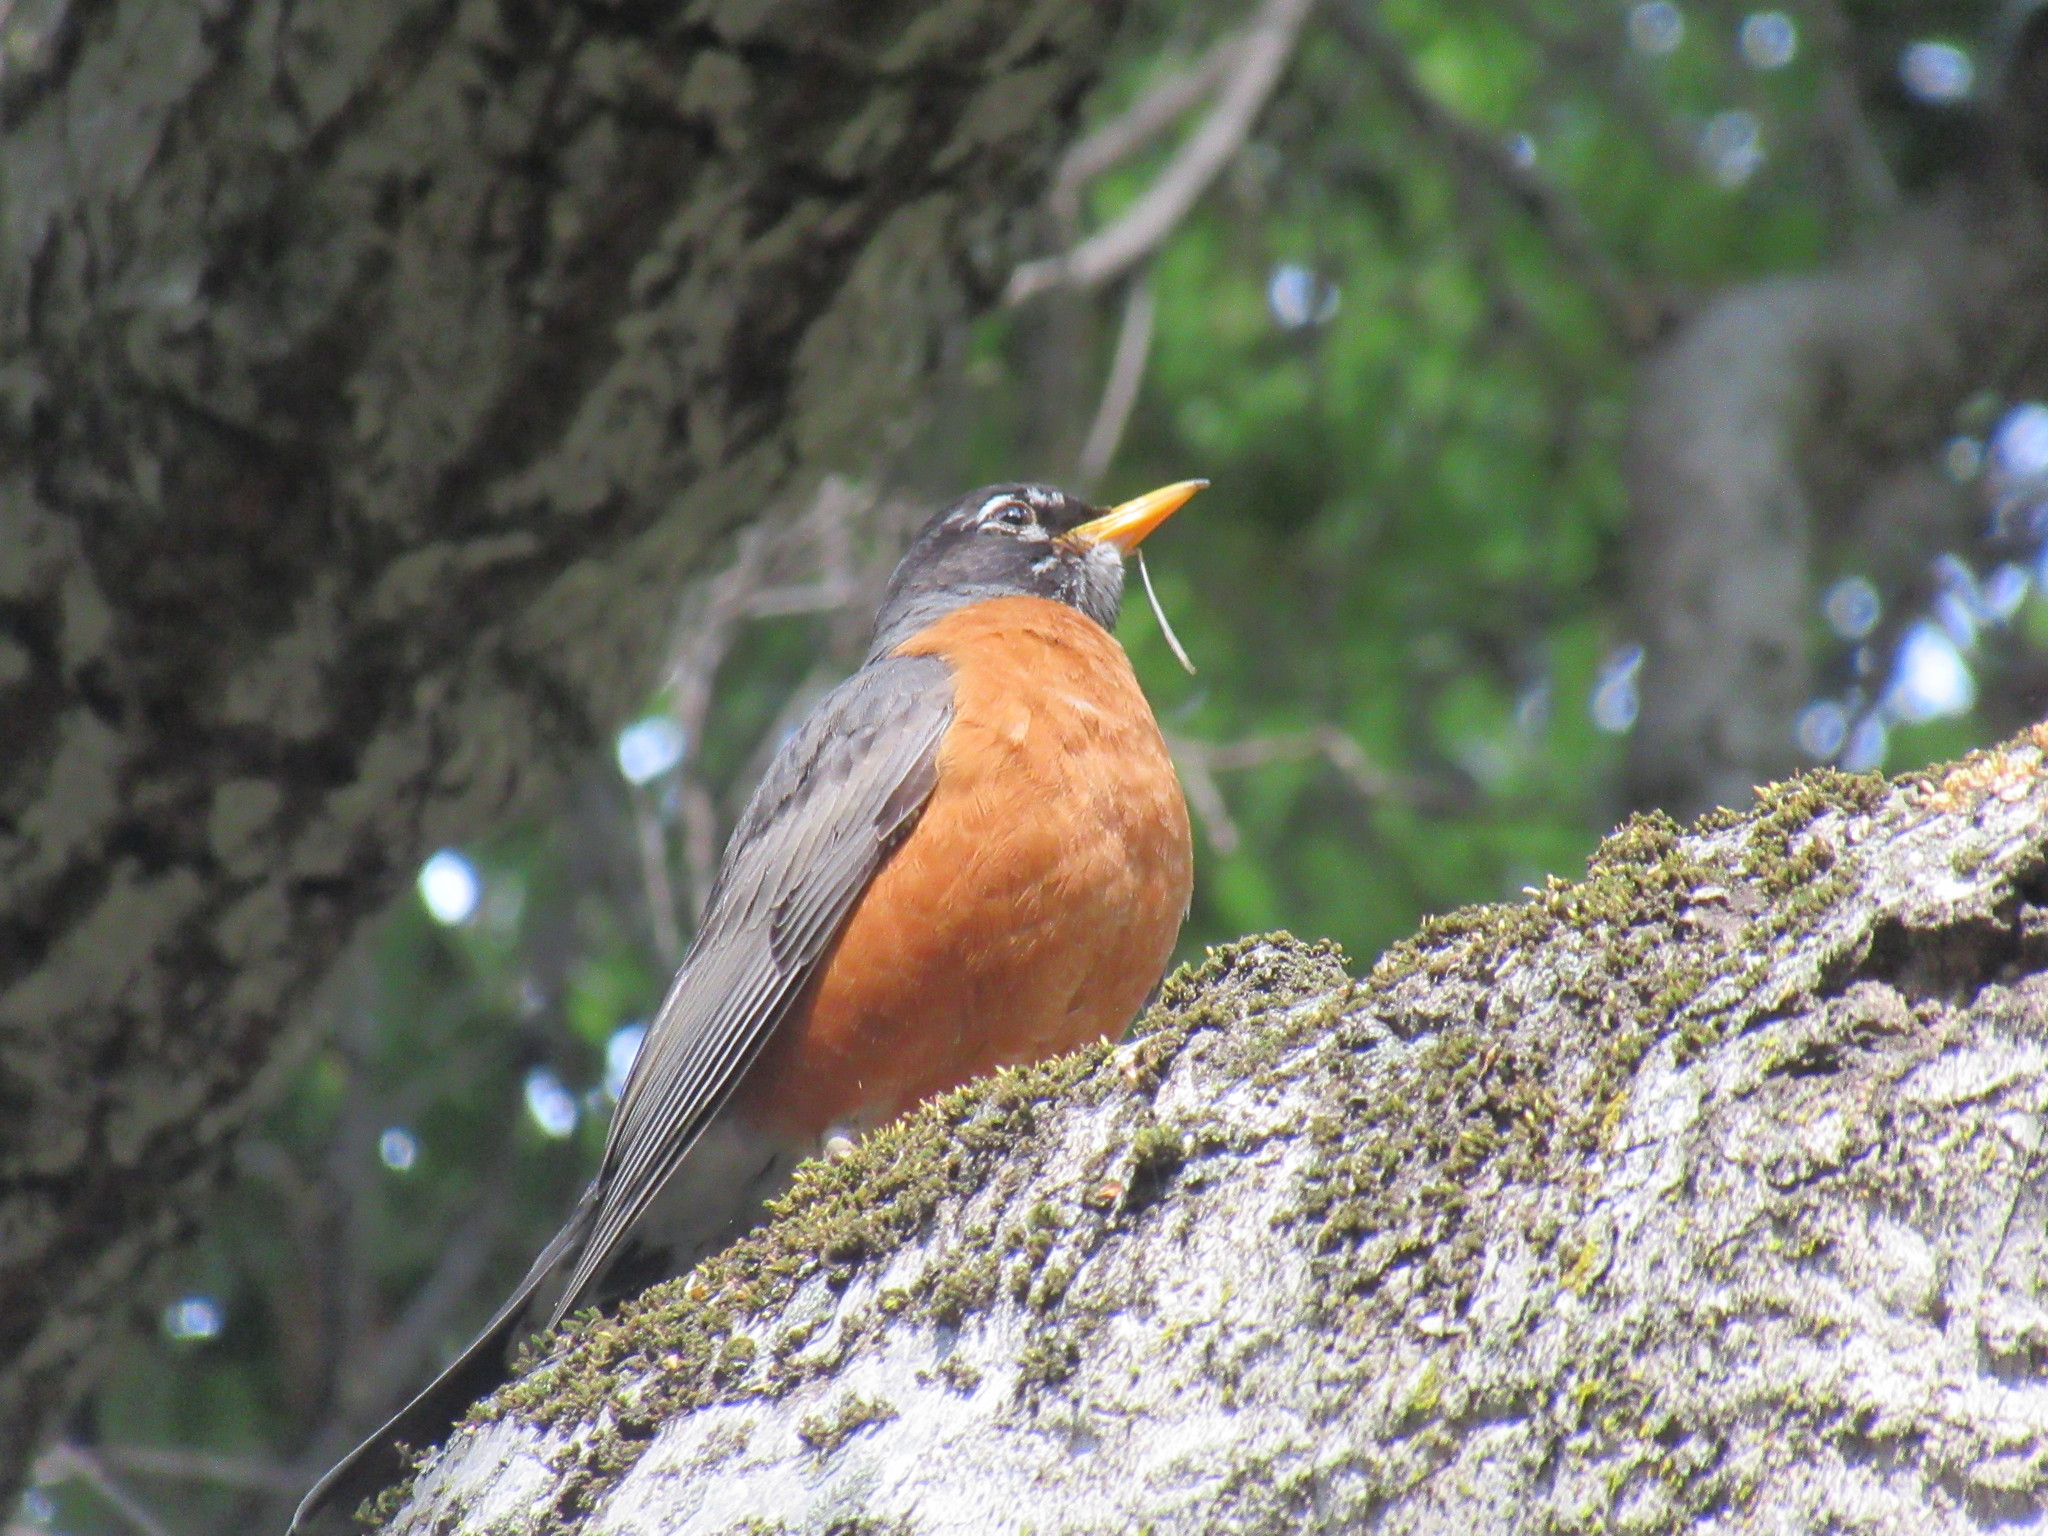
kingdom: Animalia
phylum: Chordata
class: Aves
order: Passeriformes
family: Turdidae
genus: Turdus
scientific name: Turdus migratorius
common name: American robin
